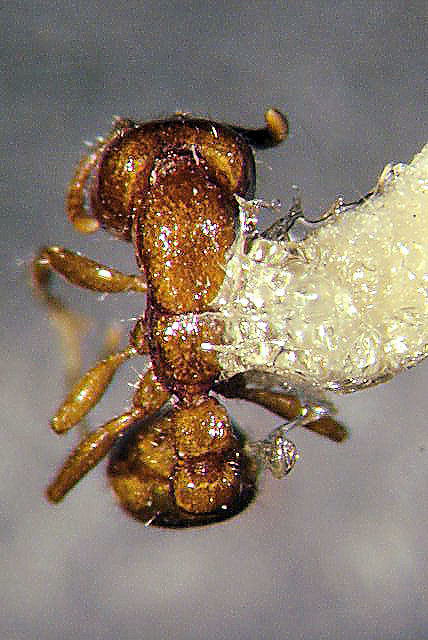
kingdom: Animalia
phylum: Arthropoda
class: Insecta
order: Hymenoptera
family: Formicidae
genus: Neivamyrmex
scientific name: Neivamyrmex moseri
